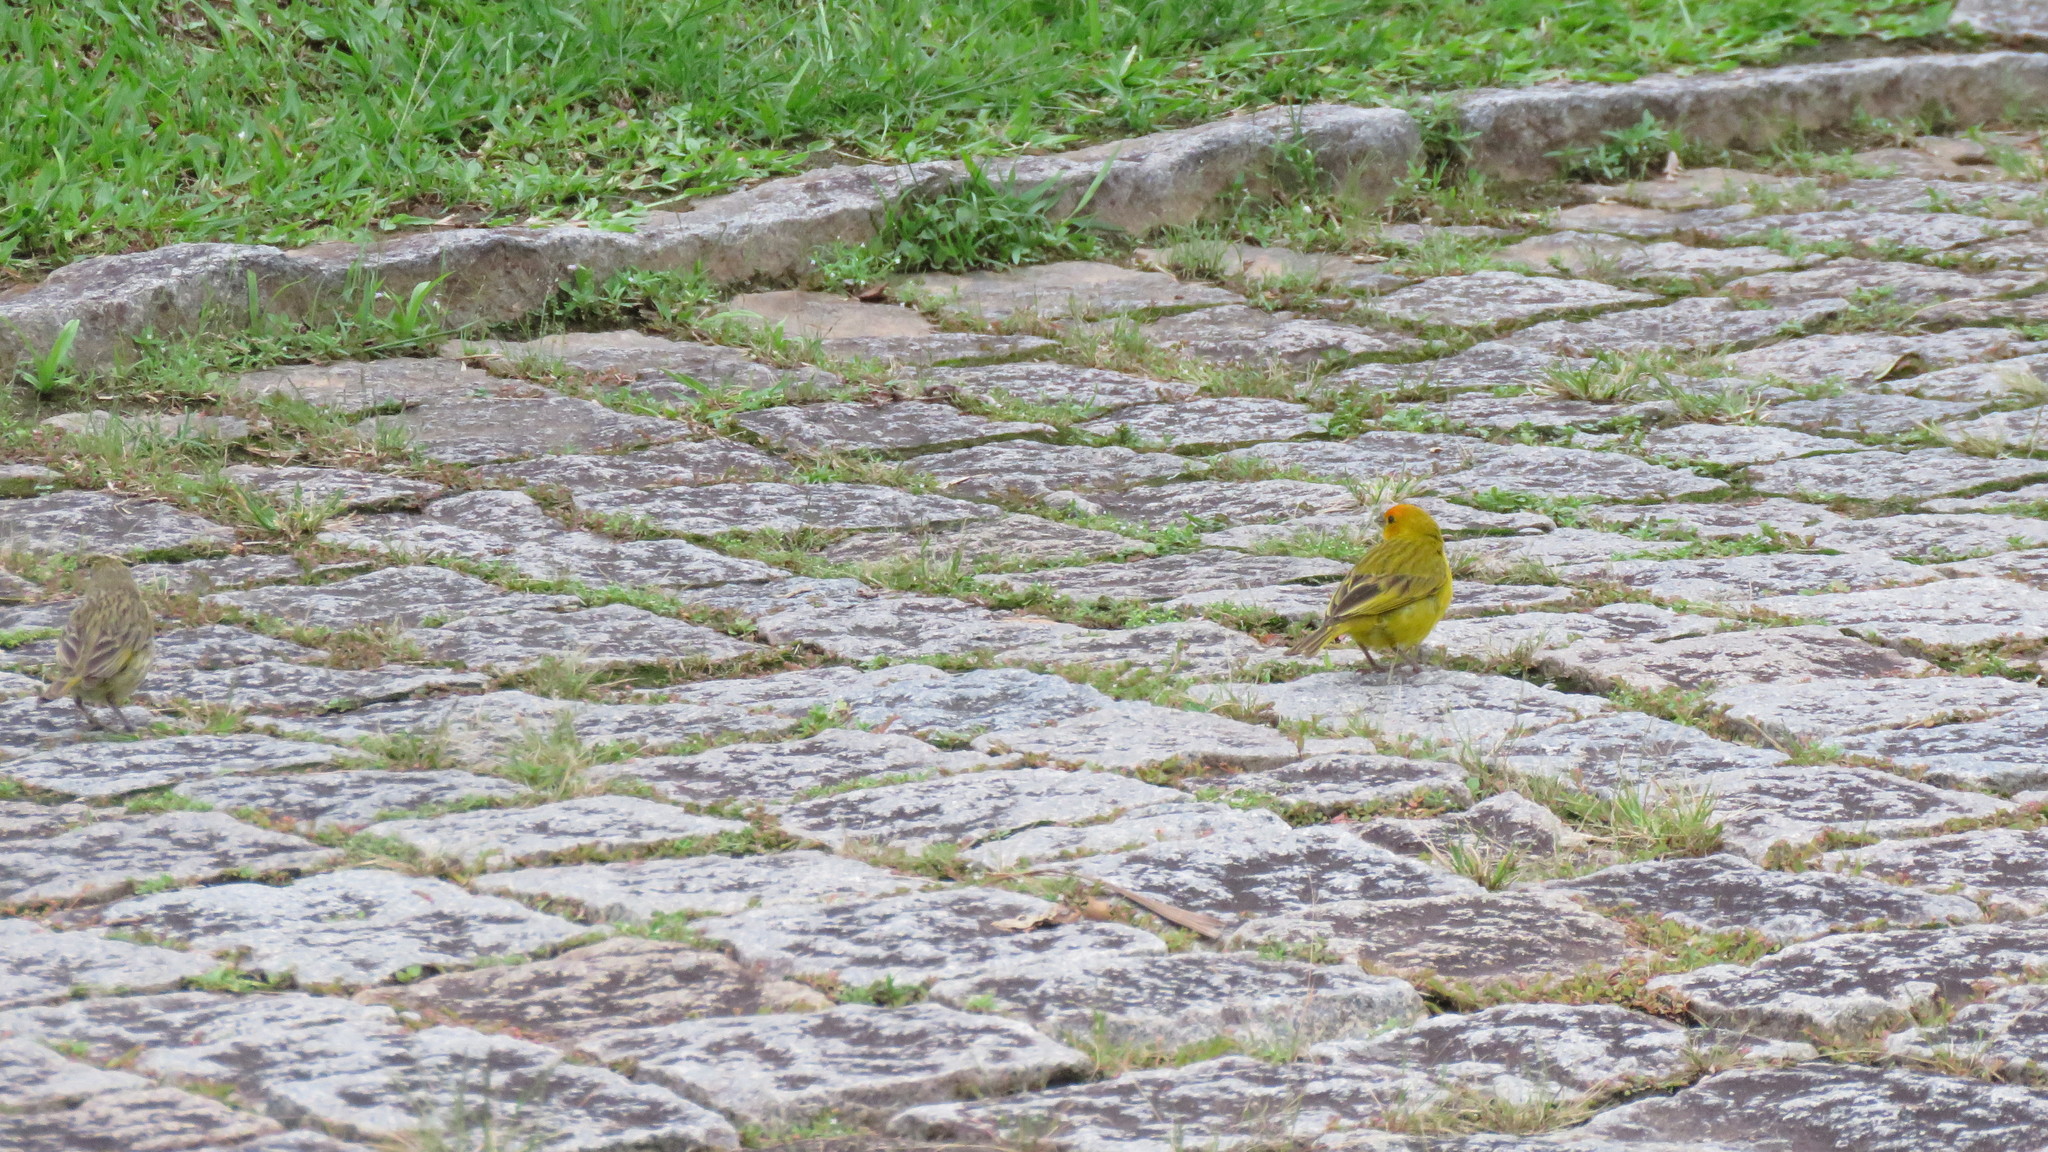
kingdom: Animalia
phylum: Chordata
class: Aves
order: Passeriformes
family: Thraupidae
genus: Sicalis
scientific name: Sicalis flaveola
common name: Saffron finch
